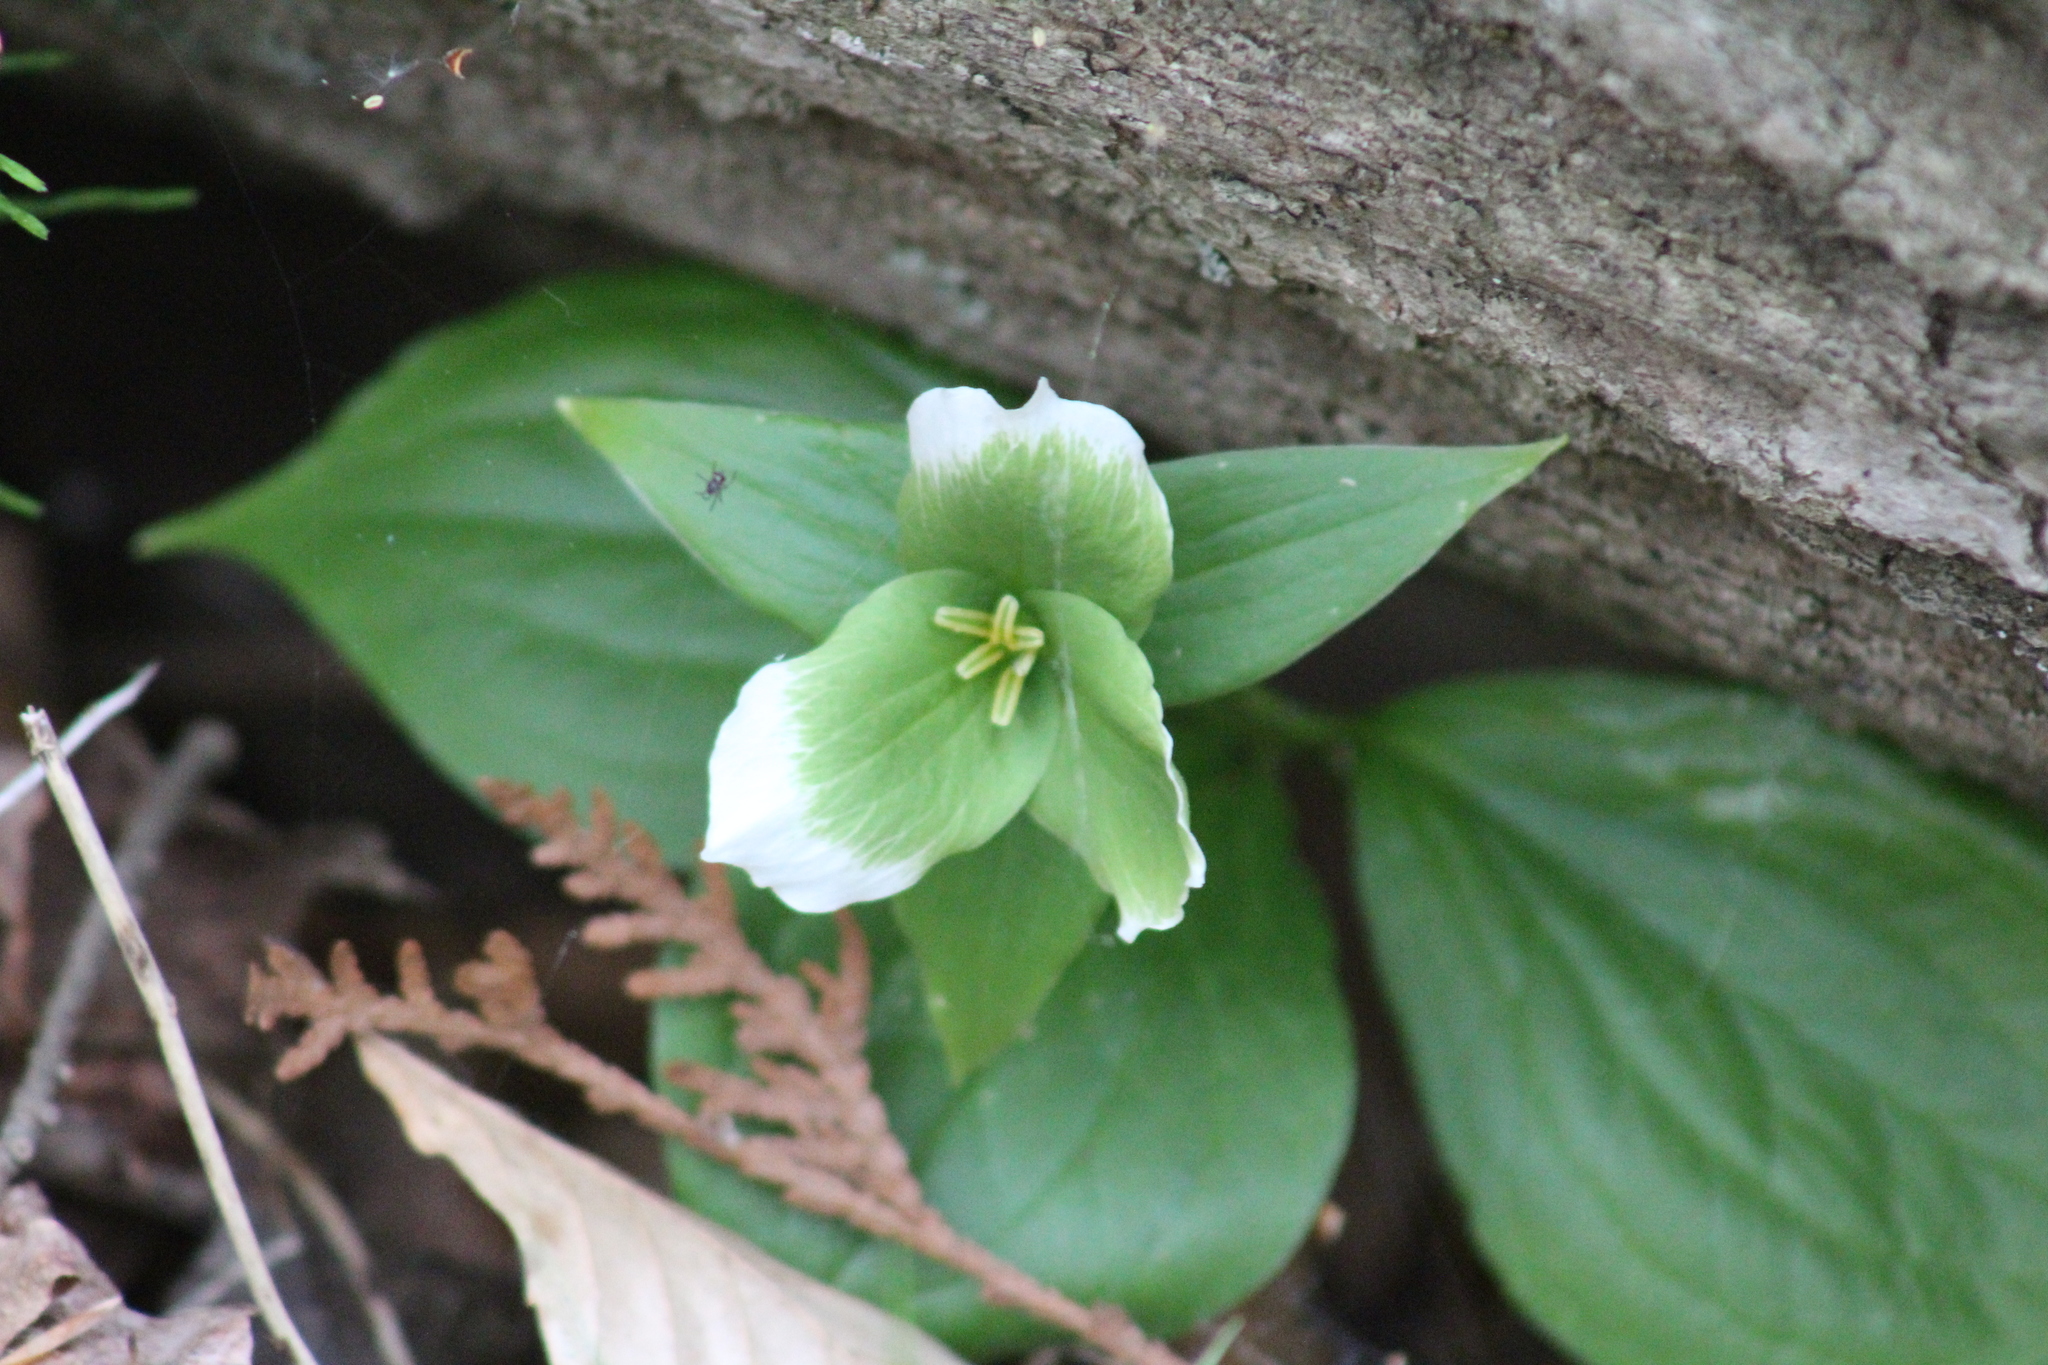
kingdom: Plantae
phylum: Tracheophyta
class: Liliopsida
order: Liliales
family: Melanthiaceae
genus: Trillium
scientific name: Trillium grandiflorum
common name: Great white trillium
